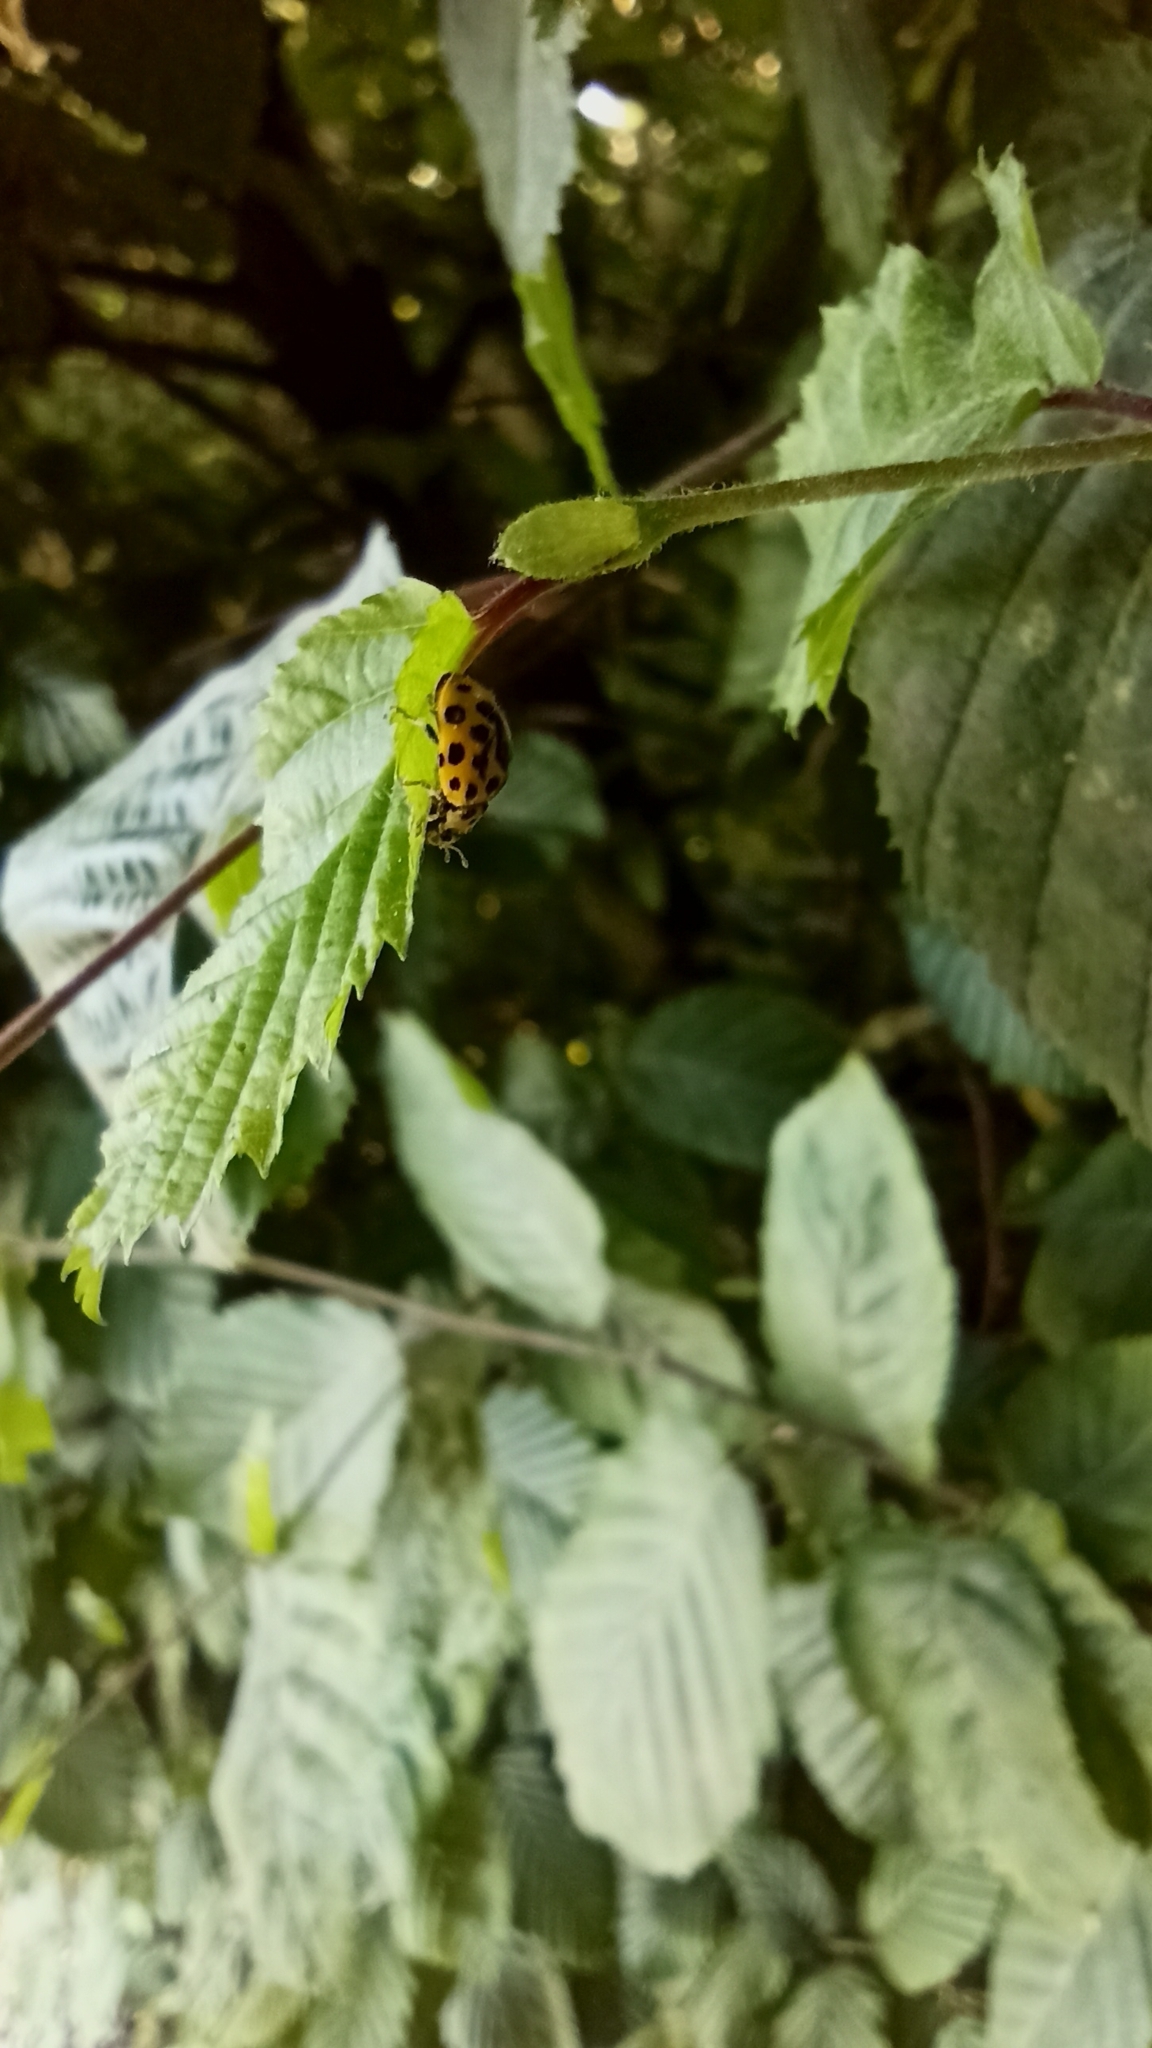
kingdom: Animalia
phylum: Arthropoda
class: Insecta
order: Coleoptera
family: Coccinellidae
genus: Psyllobora
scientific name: Psyllobora vigintiduopunctata
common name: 22-spot ladybird
